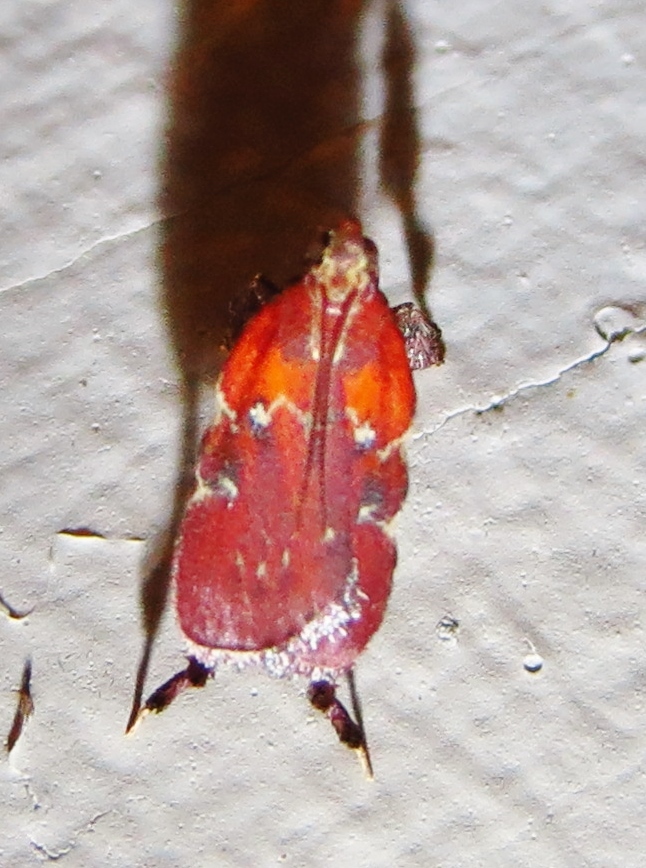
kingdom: Animalia
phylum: Arthropoda
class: Insecta
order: Lepidoptera
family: Pyralidae
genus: Galasa
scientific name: Galasa nigrinodis
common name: Boxwood leaftier moth
